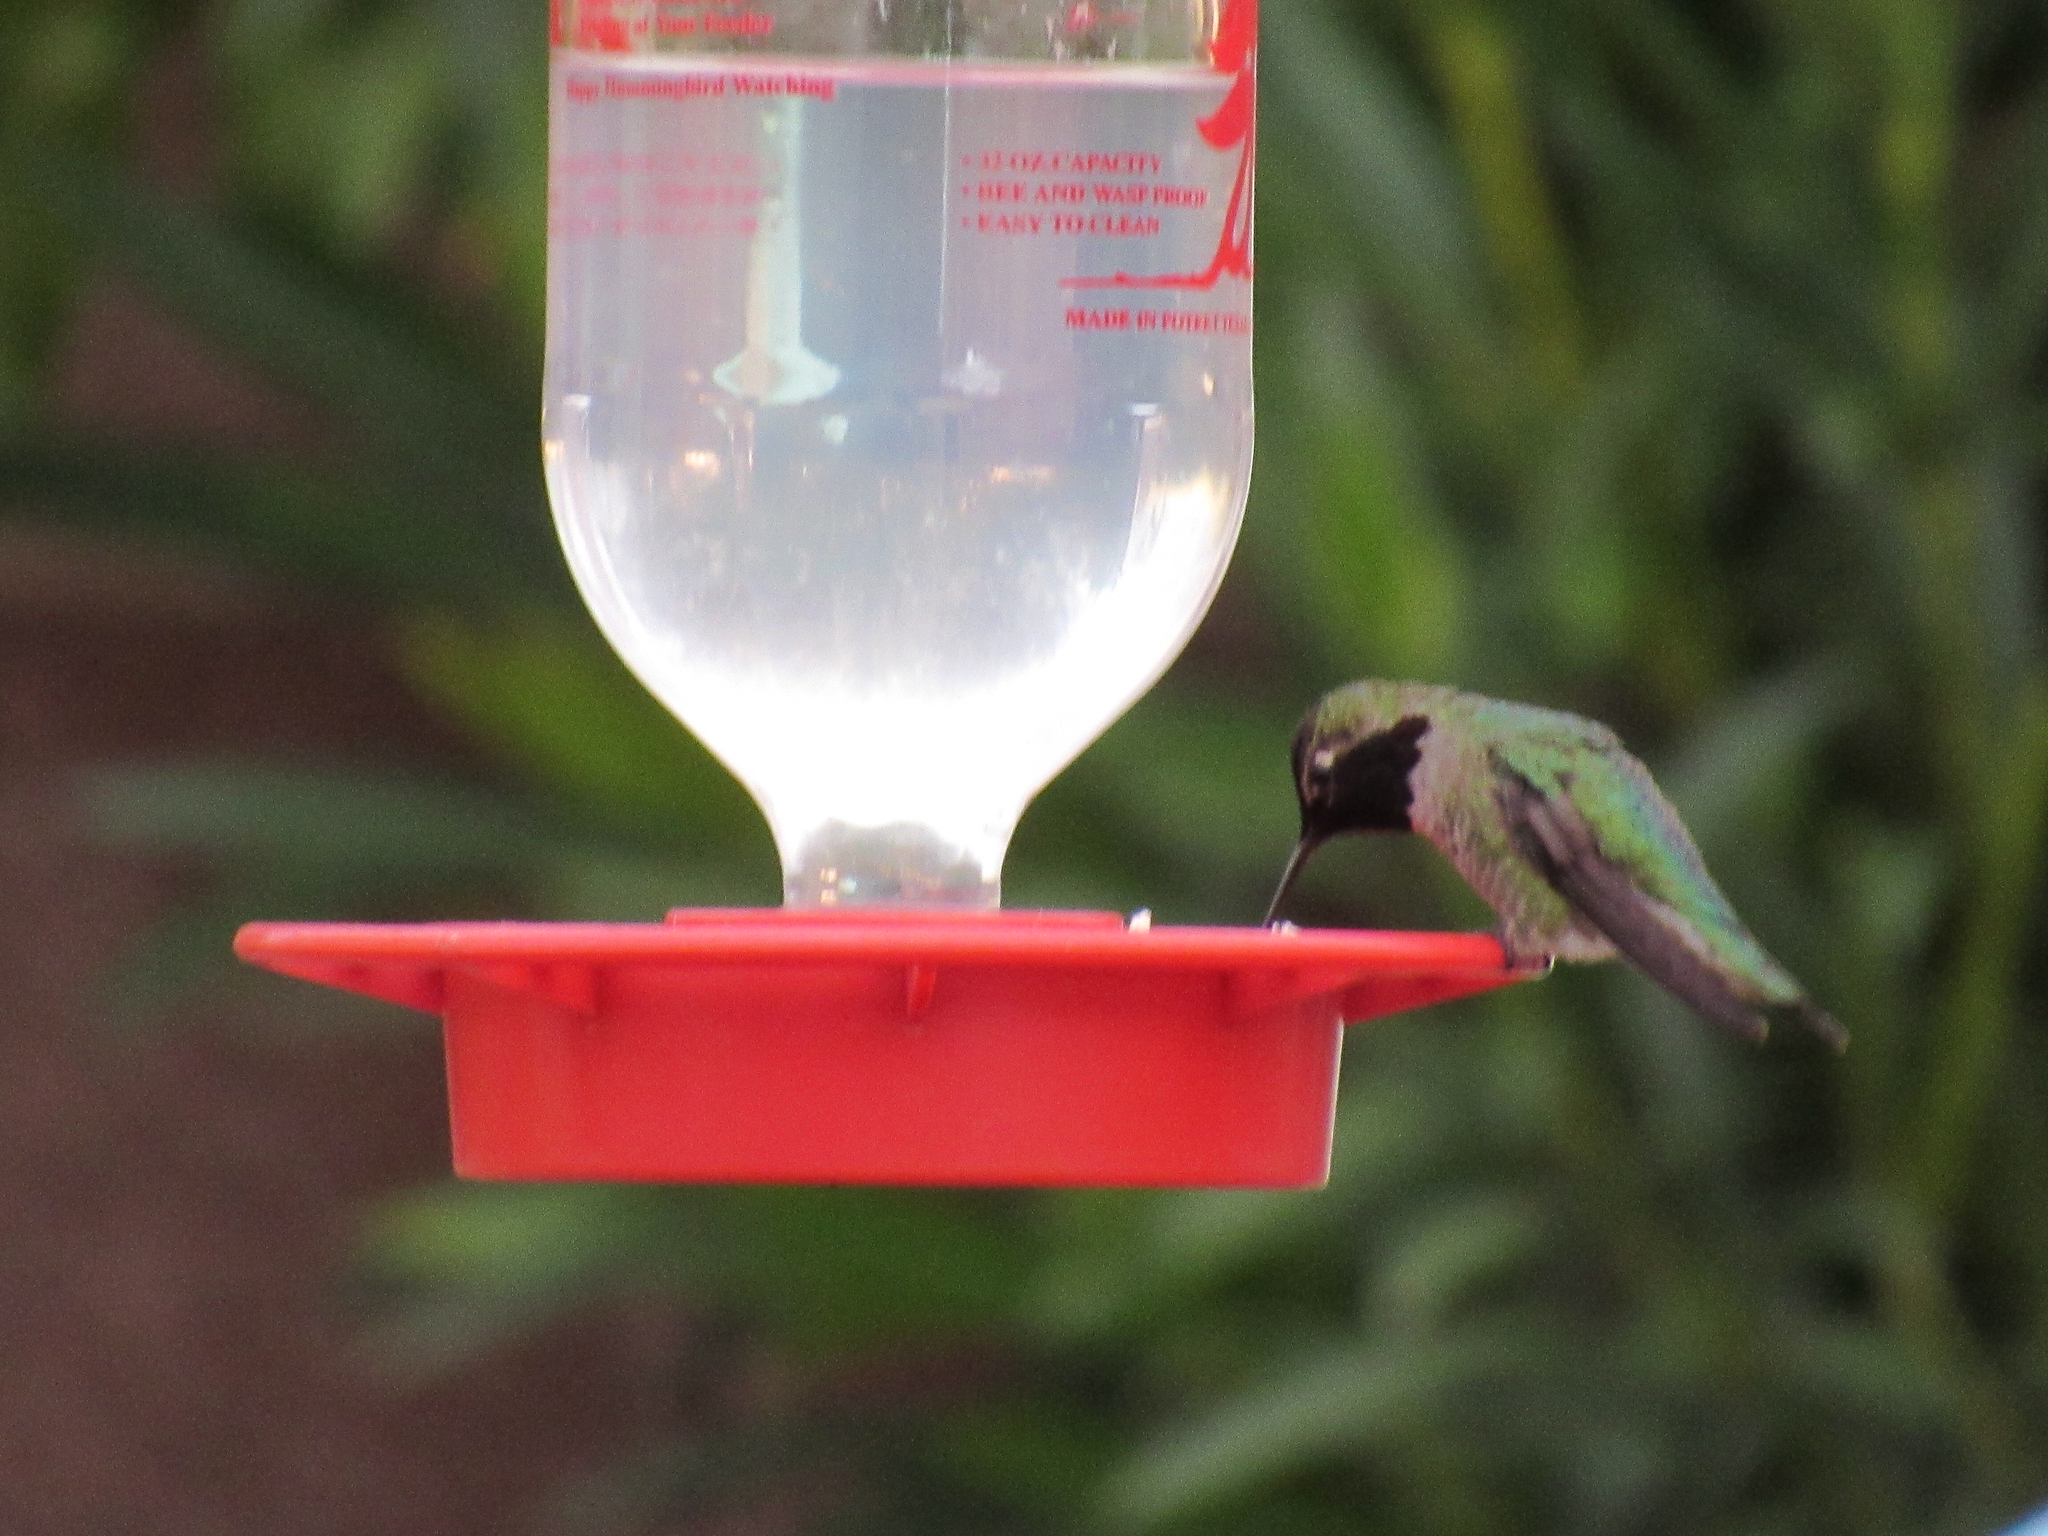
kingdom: Animalia
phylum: Chordata
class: Aves
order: Apodiformes
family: Trochilidae
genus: Calypte
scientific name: Calypte anna
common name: Anna's hummingbird
